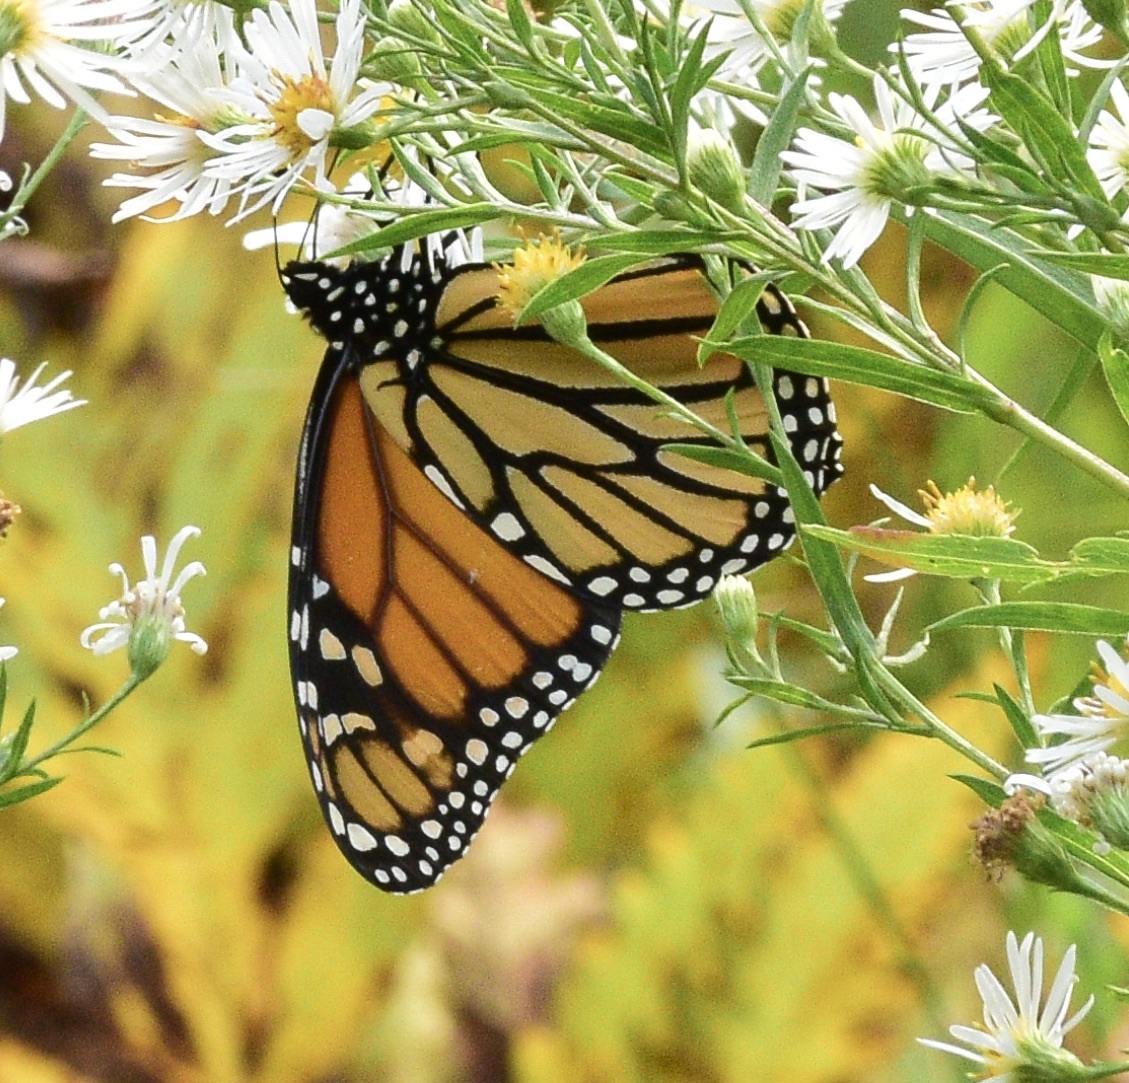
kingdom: Animalia
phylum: Arthropoda
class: Insecta
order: Lepidoptera
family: Nymphalidae
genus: Danaus
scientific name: Danaus plexippus
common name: Monarch
